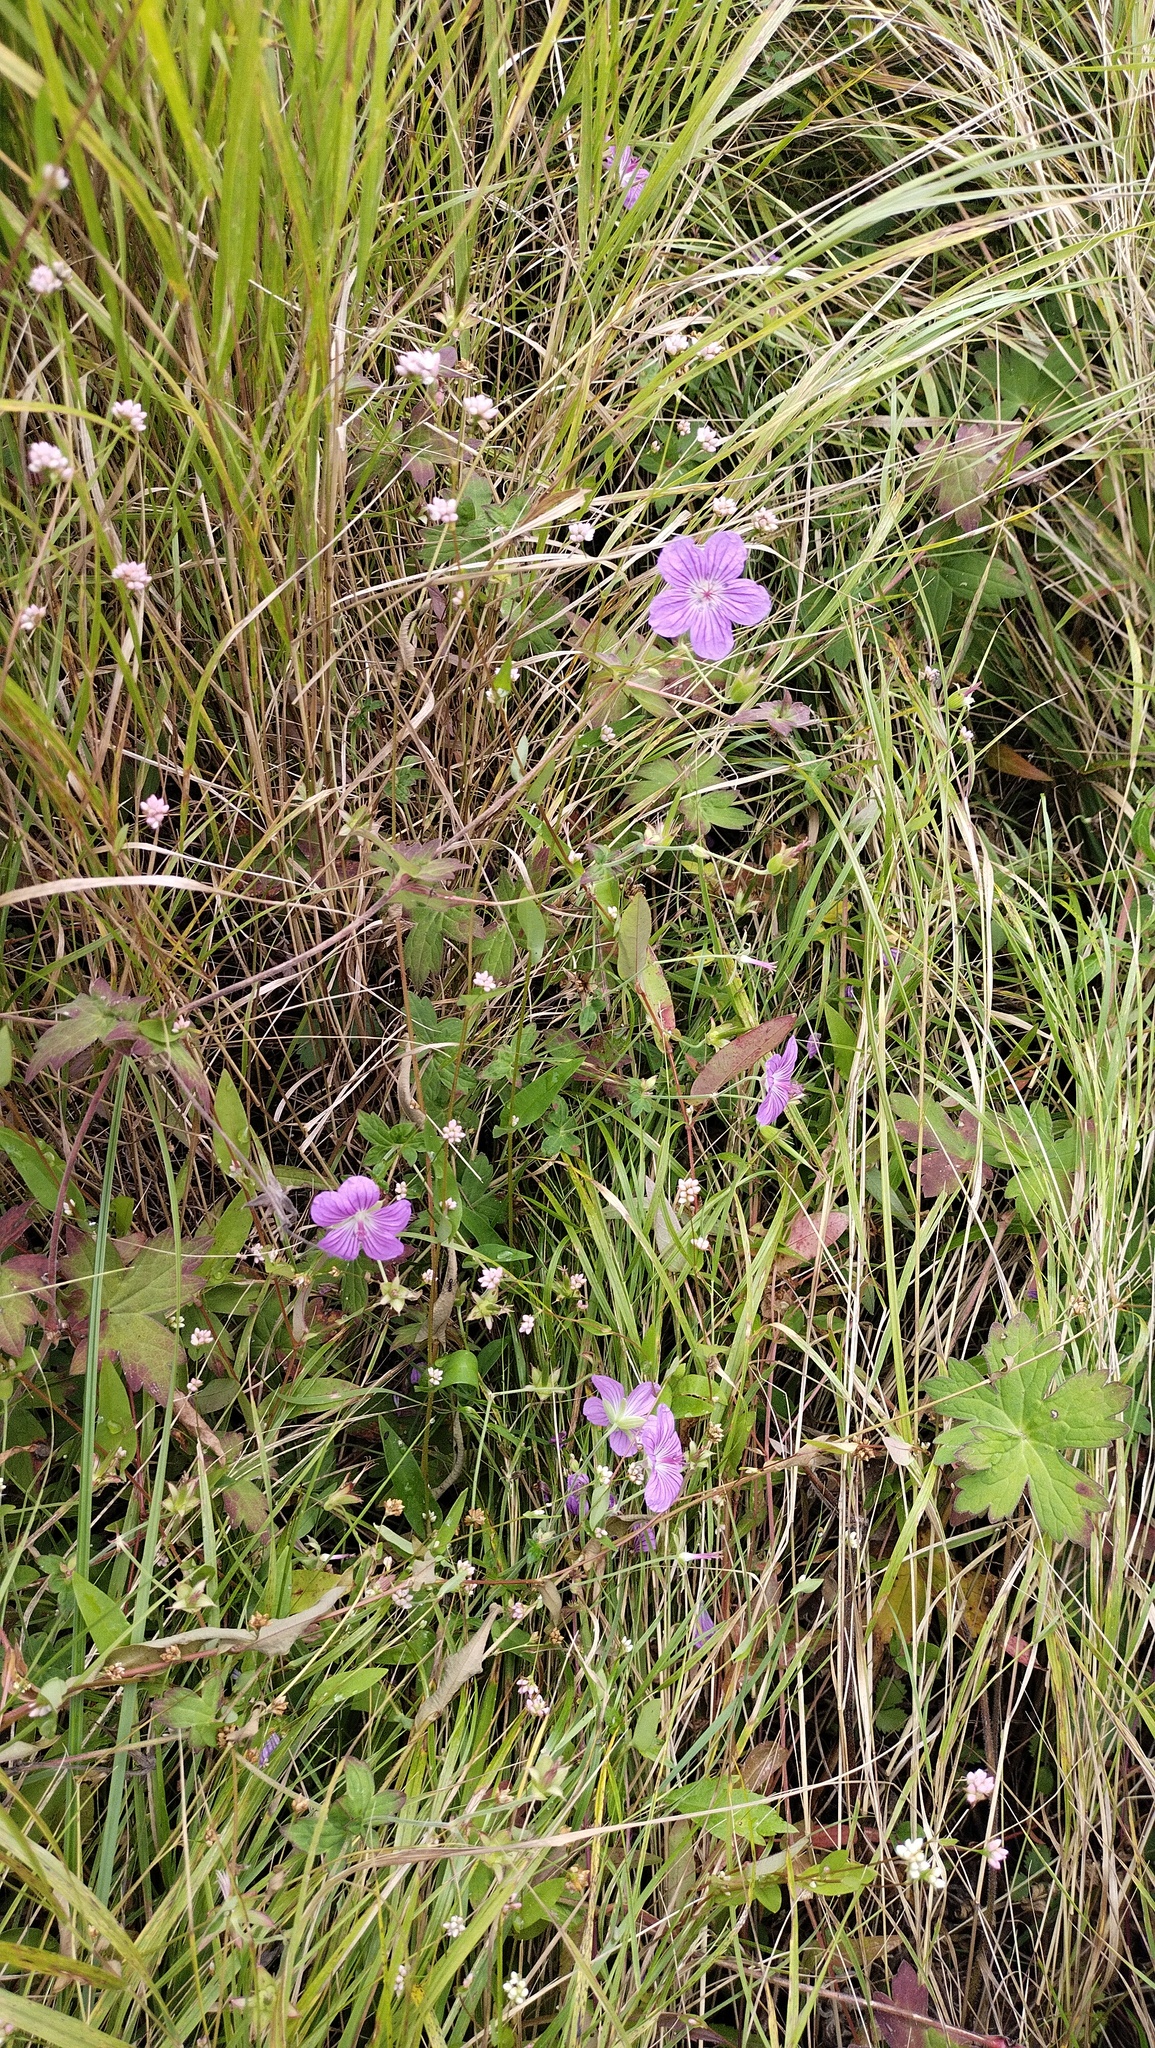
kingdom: Plantae
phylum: Tracheophyta
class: Magnoliopsida
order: Geraniales
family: Geraniaceae
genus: Geranium
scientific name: Geranium wlassovianum
